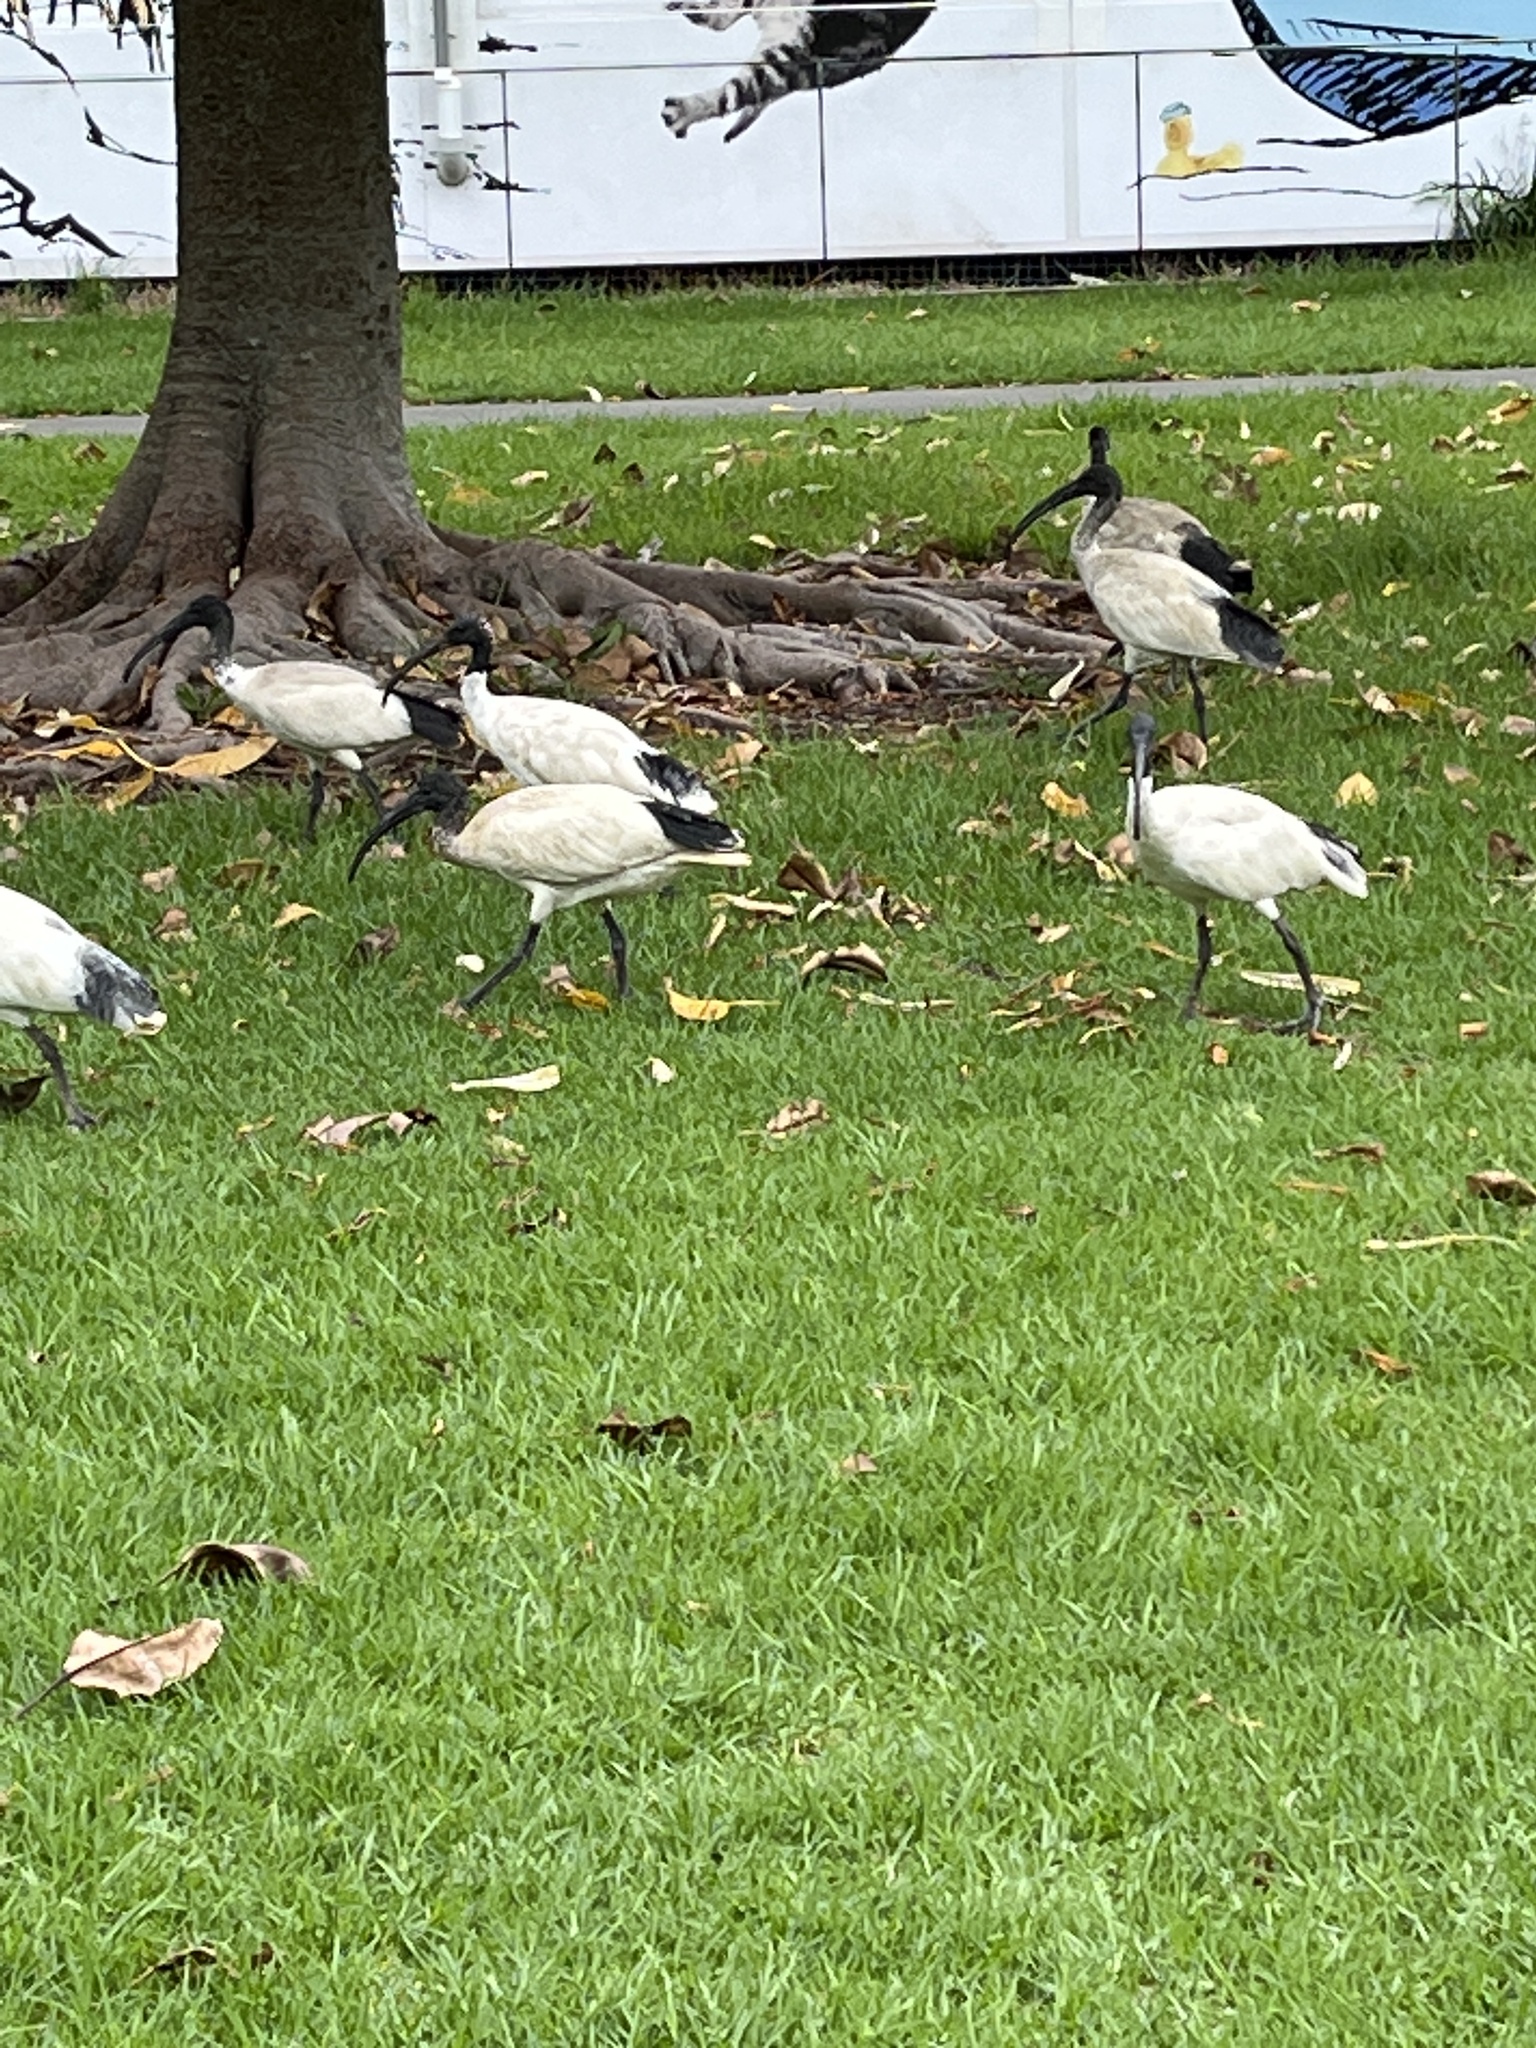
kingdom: Animalia
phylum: Chordata
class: Aves
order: Pelecaniformes
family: Threskiornithidae
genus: Threskiornis
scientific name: Threskiornis molucca
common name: Australian white ibis
